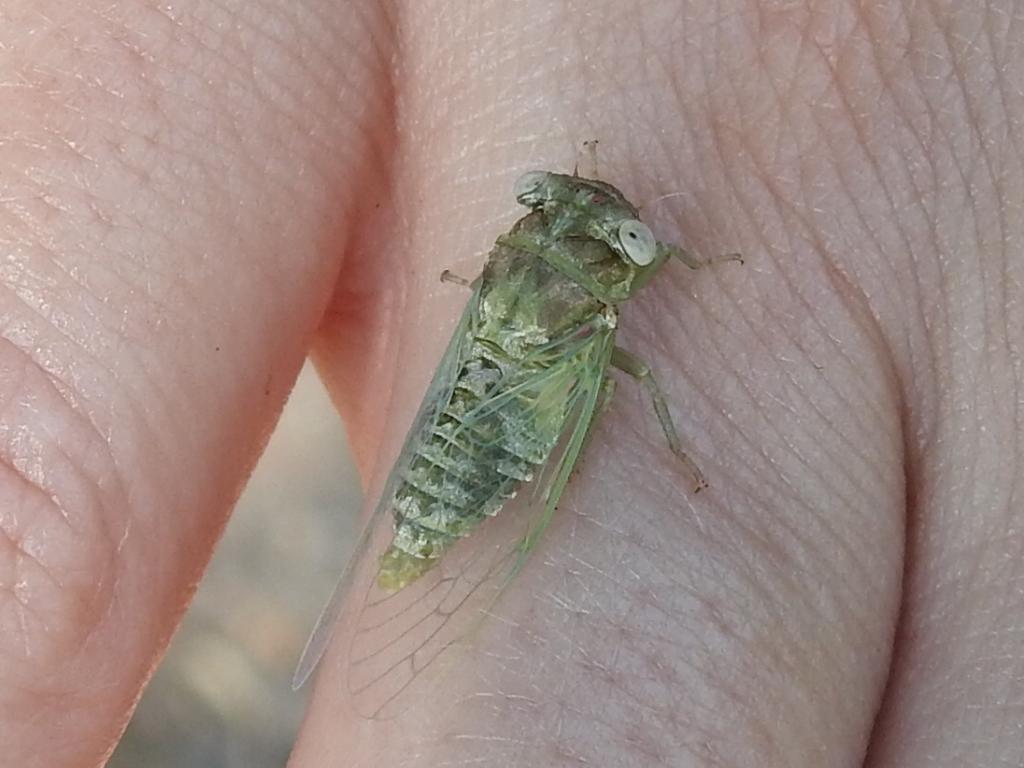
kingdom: Animalia
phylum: Arthropoda
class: Insecta
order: Hemiptera
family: Cicadidae
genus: Pacarina
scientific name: Pacarina puella
